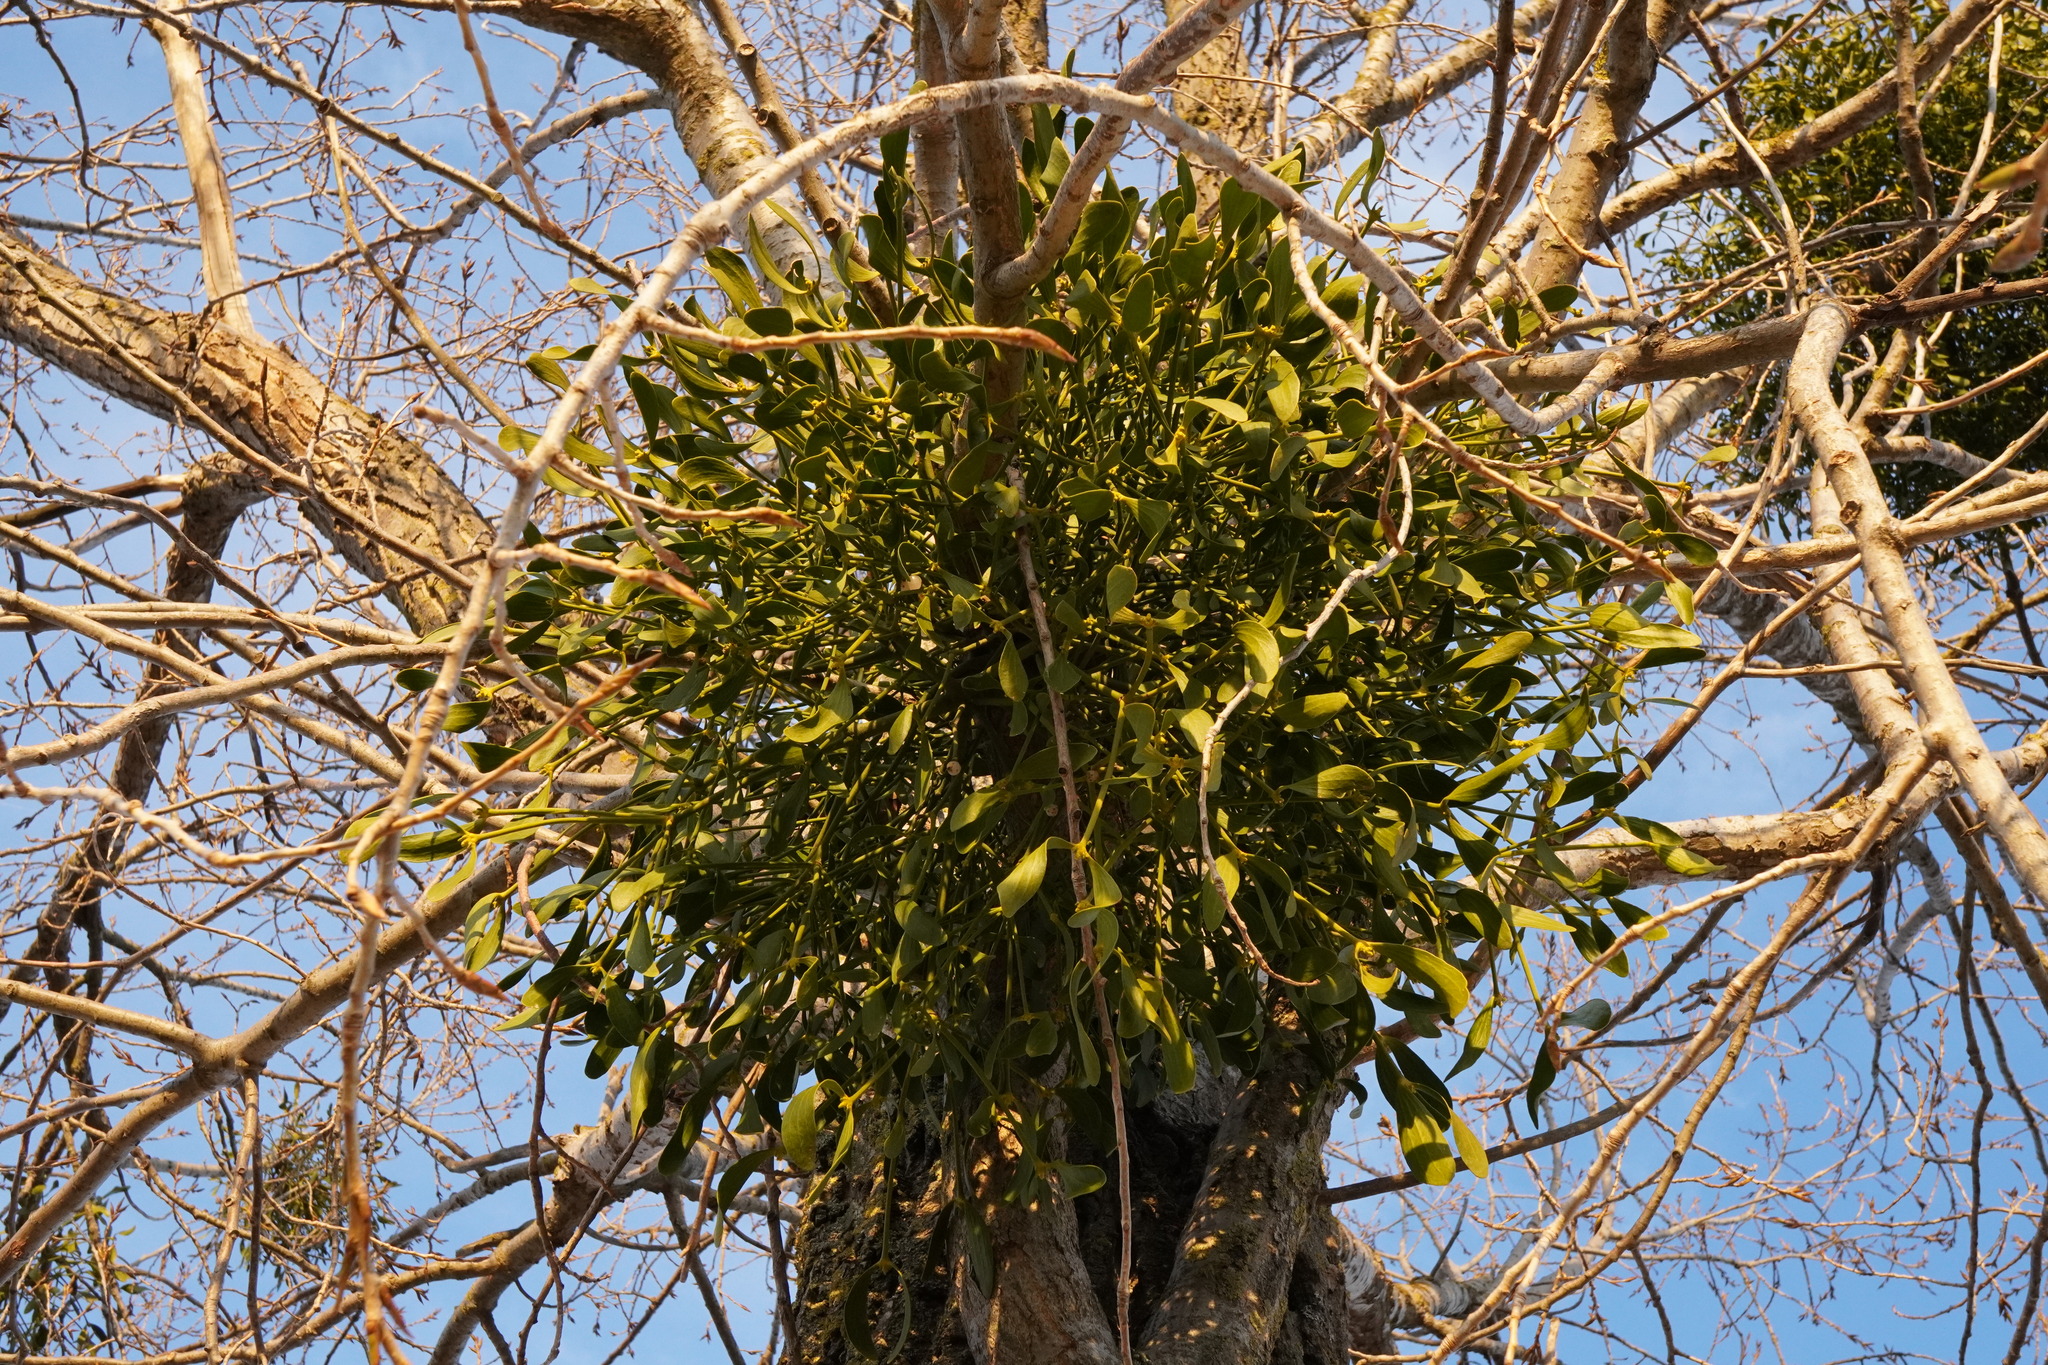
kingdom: Plantae
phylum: Tracheophyta
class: Magnoliopsida
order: Santalales
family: Viscaceae
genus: Viscum
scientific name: Viscum album
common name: Mistletoe
